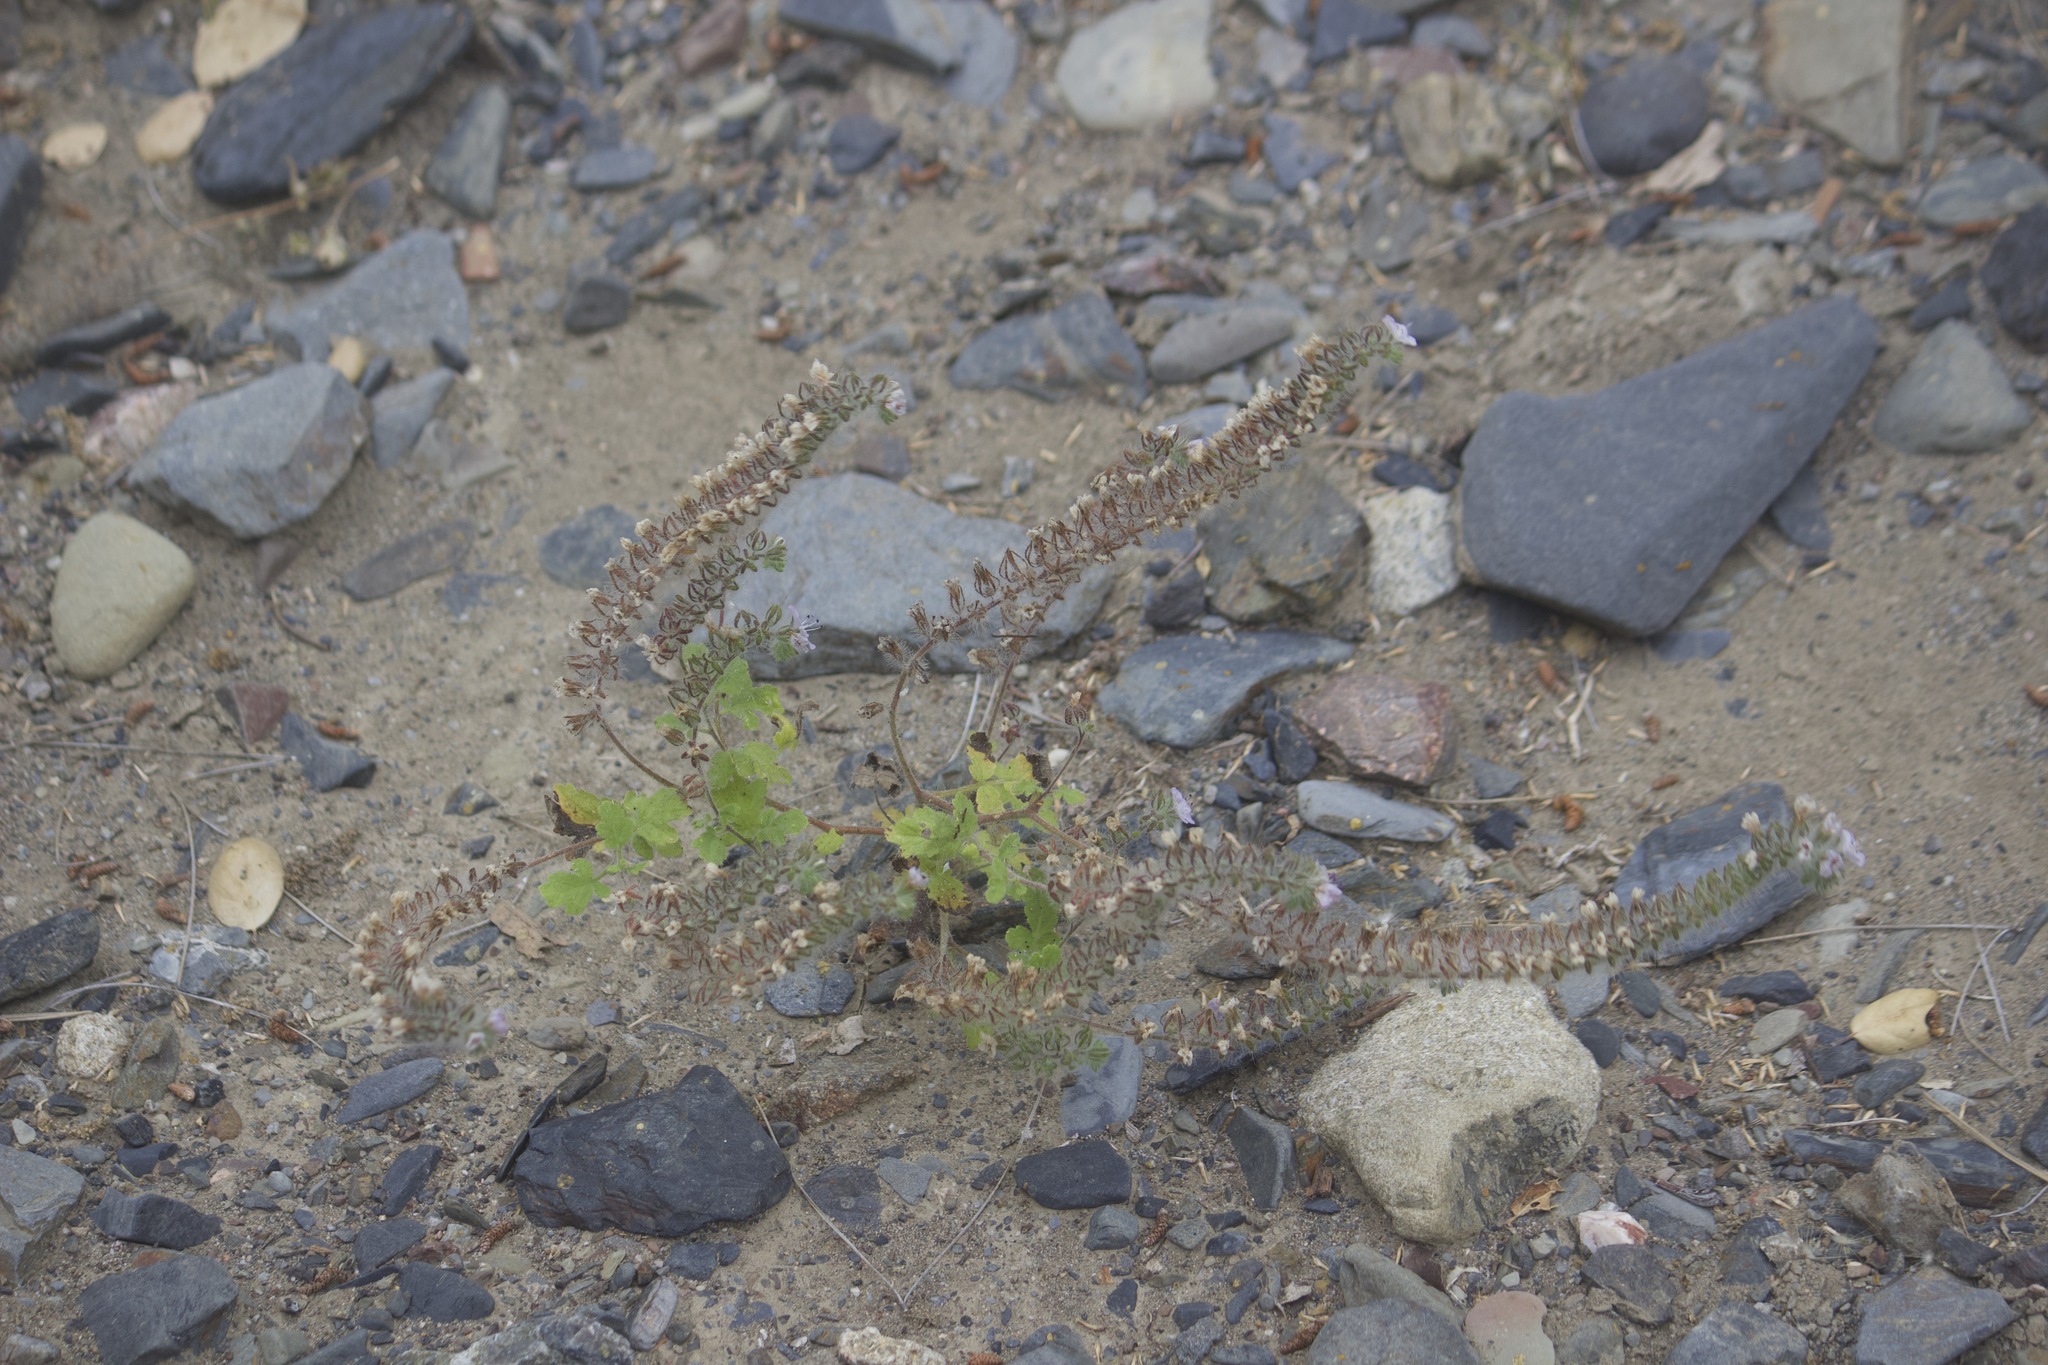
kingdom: Plantae
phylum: Tracheophyta
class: Magnoliopsida
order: Boraginales
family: Hydrophyllaceae
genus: Phacelia
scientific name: Phacelia cicutaria
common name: Caterpillar phacelia
